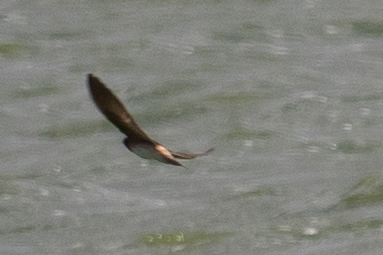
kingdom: Animalia
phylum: Chordata
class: Aves
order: Passeriformes
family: Hirundinidae
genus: Petrochelidon
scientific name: Petrochelidon pyrrhonota
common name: American cliff swallow
